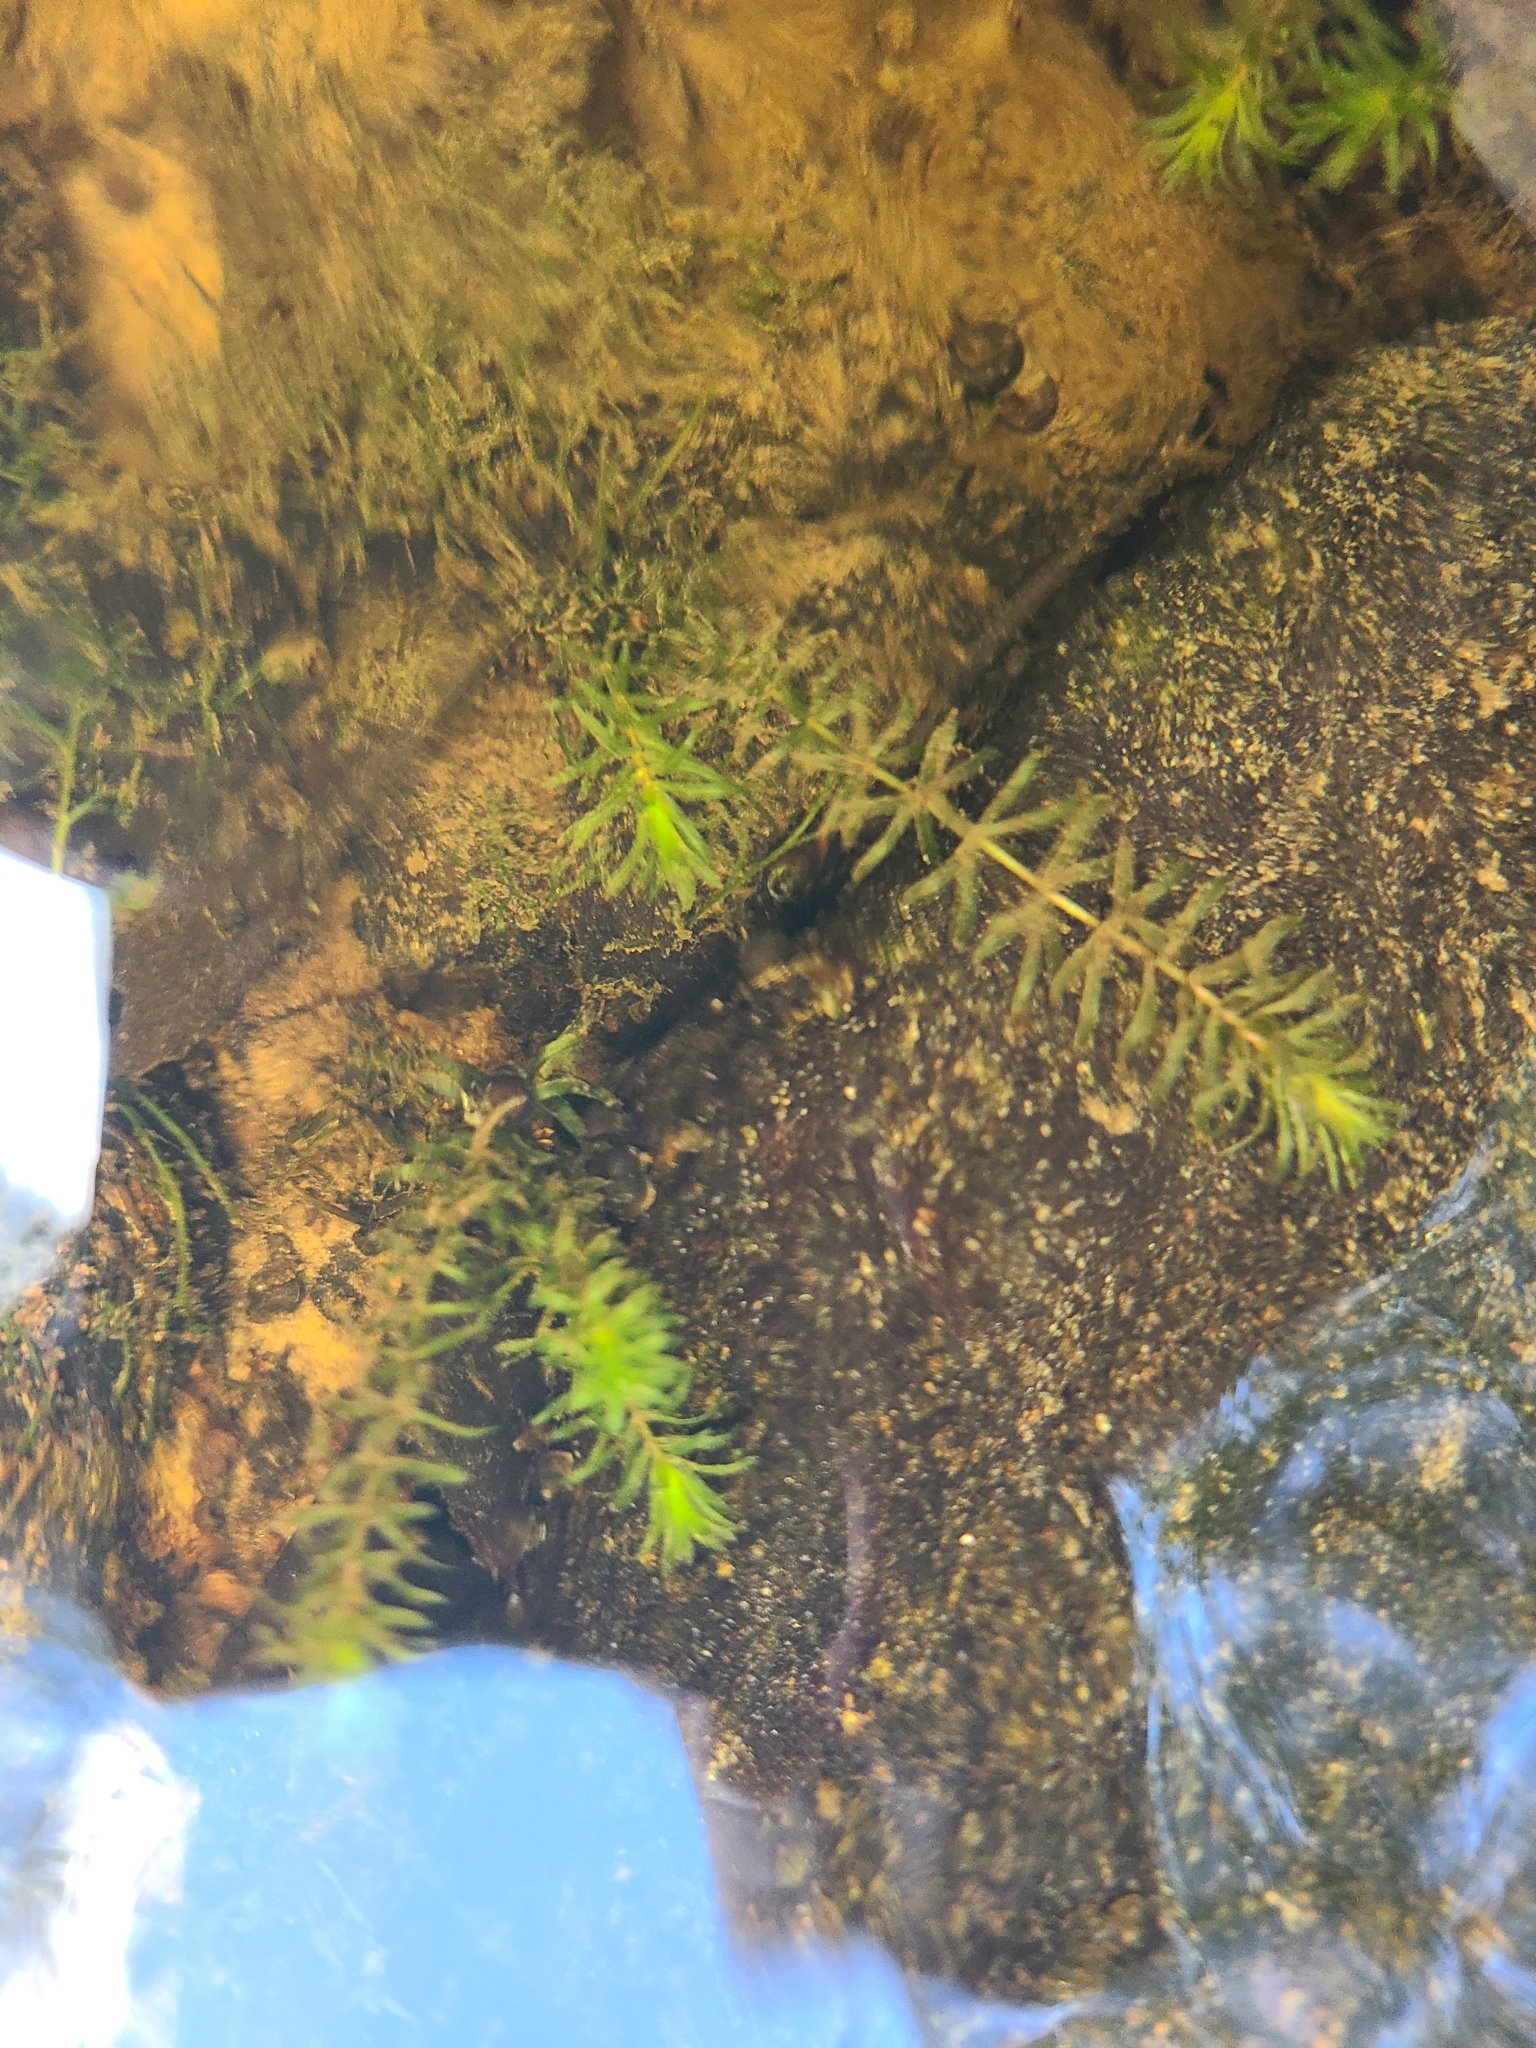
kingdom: Plantae
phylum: Tracheophyta
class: Liliopsida
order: Alismatales
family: Hydrocharitaceae
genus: Hydrilla
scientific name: Hydrilla verticillata
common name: Florida-elodea
